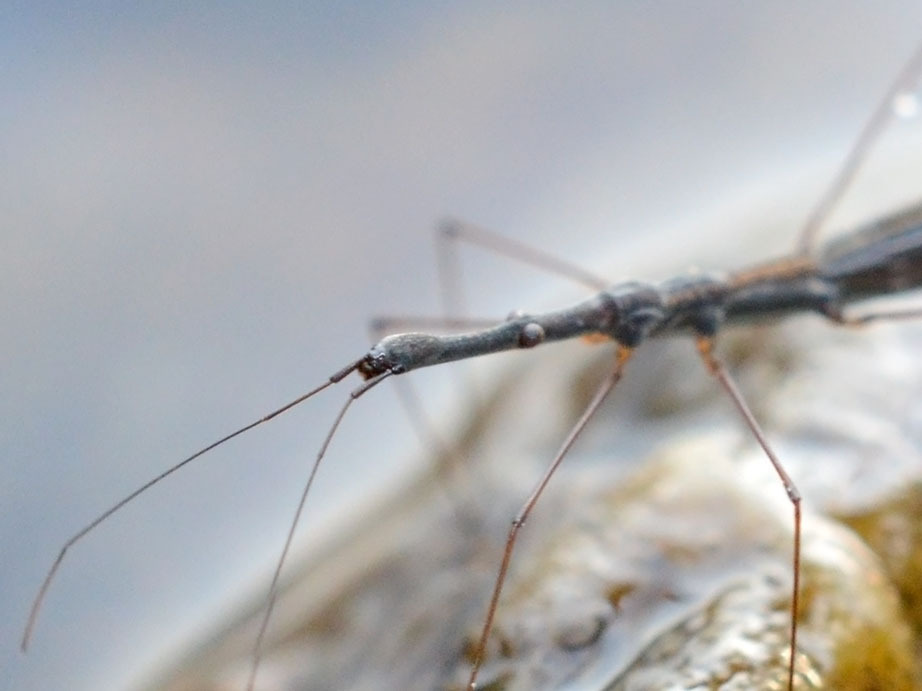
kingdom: Animalia
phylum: Arthropoda
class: Insecta
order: Hemiptera
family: Hydrometridae
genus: Hydrometra
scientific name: Hydrometra stagnorum
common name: Water measurer
